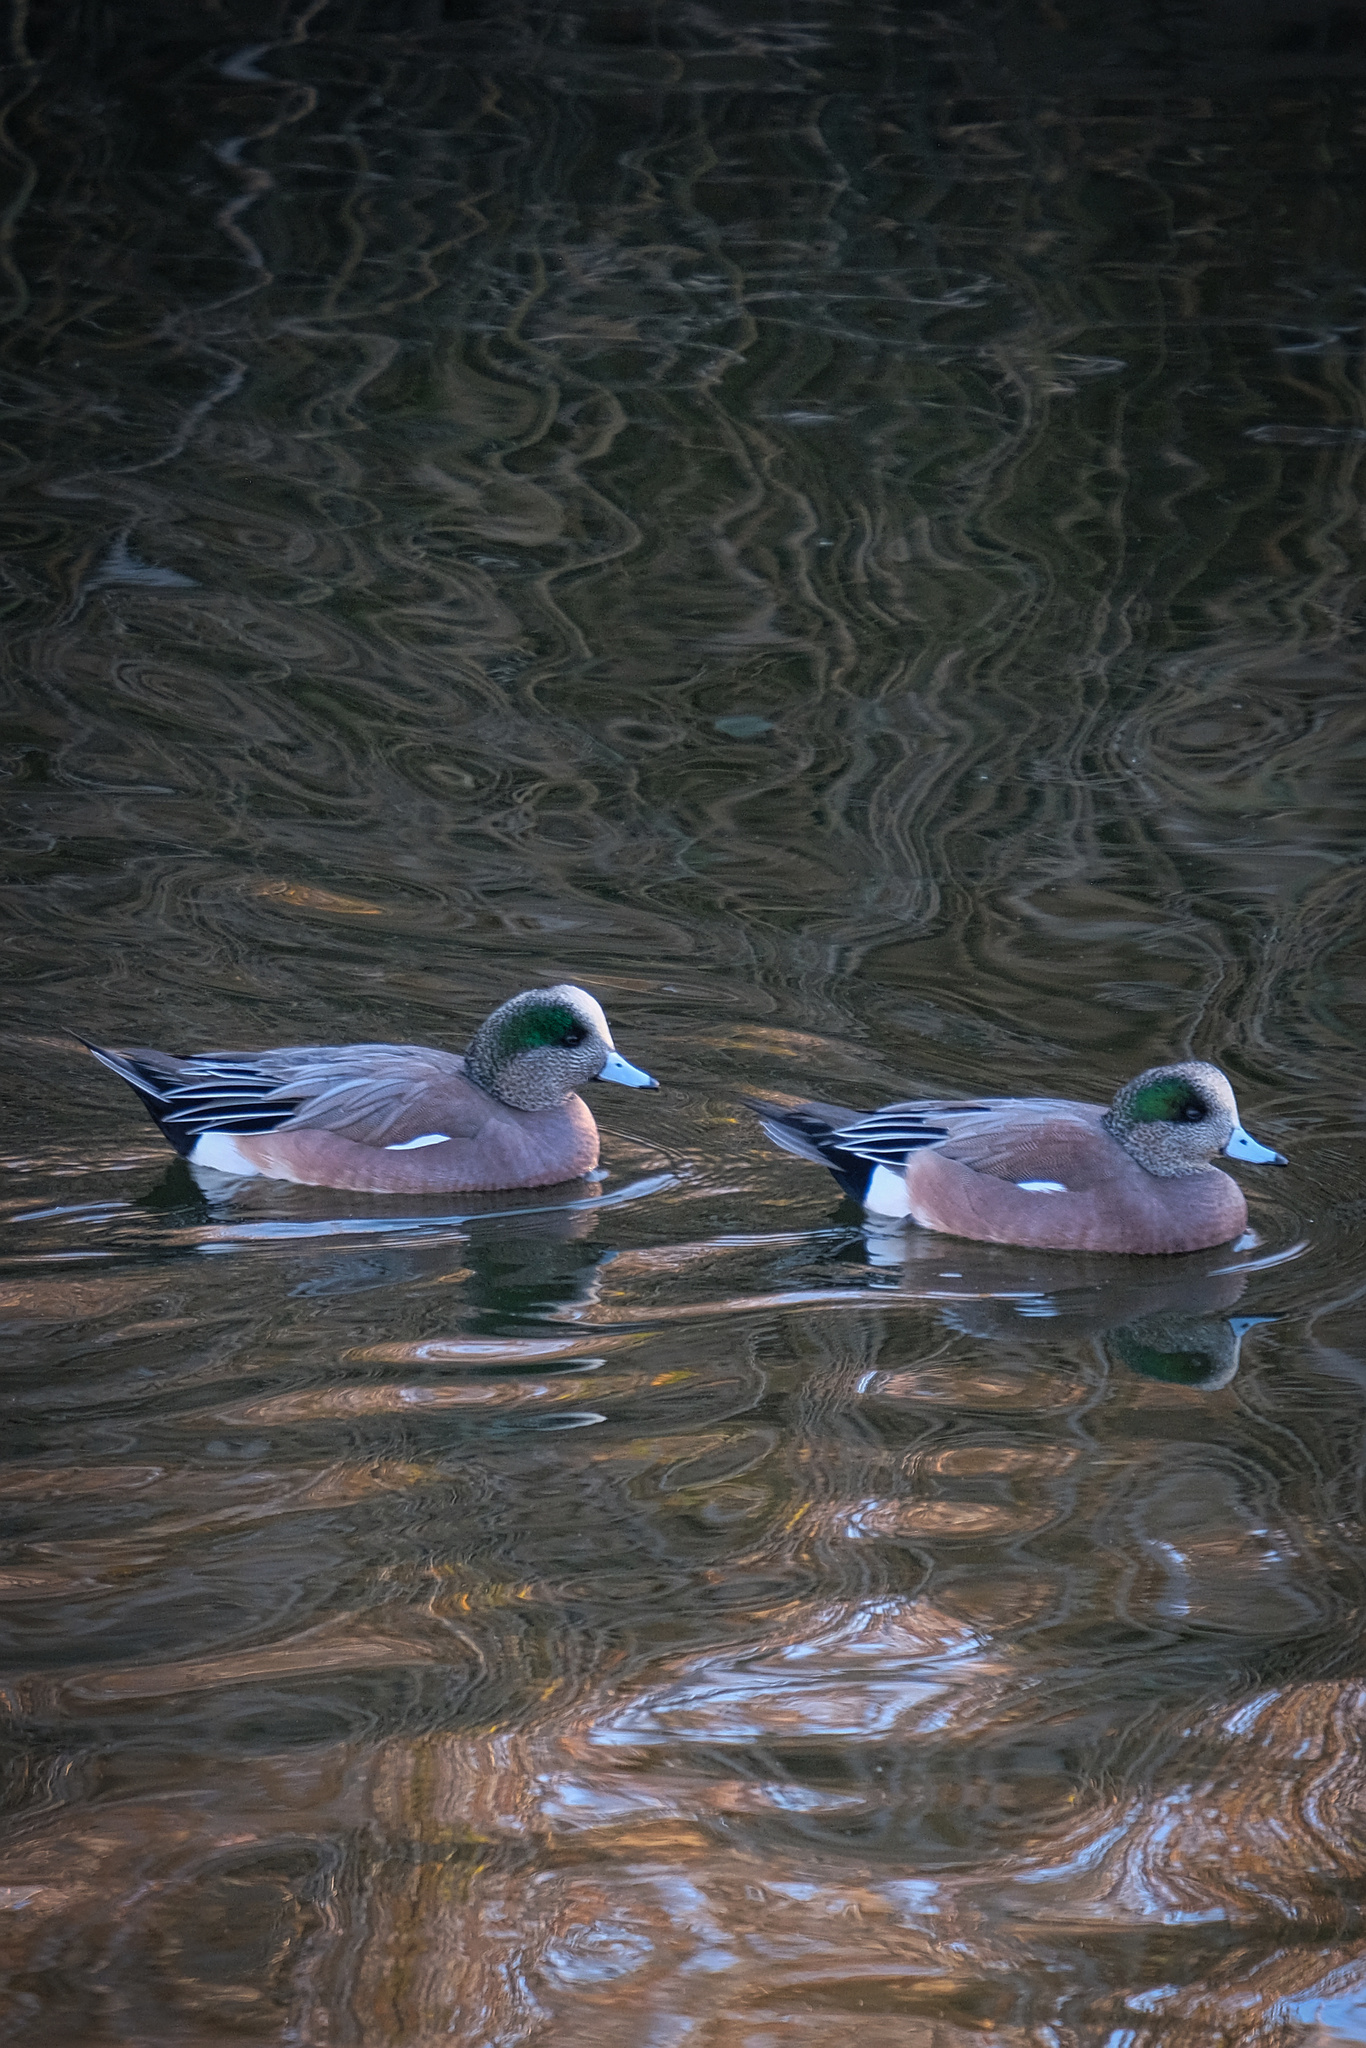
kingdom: Animalia
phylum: Chordata
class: Aves
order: Anseriformes
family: Anatidae
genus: Mareca
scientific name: Mareca americana
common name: American wigeon
